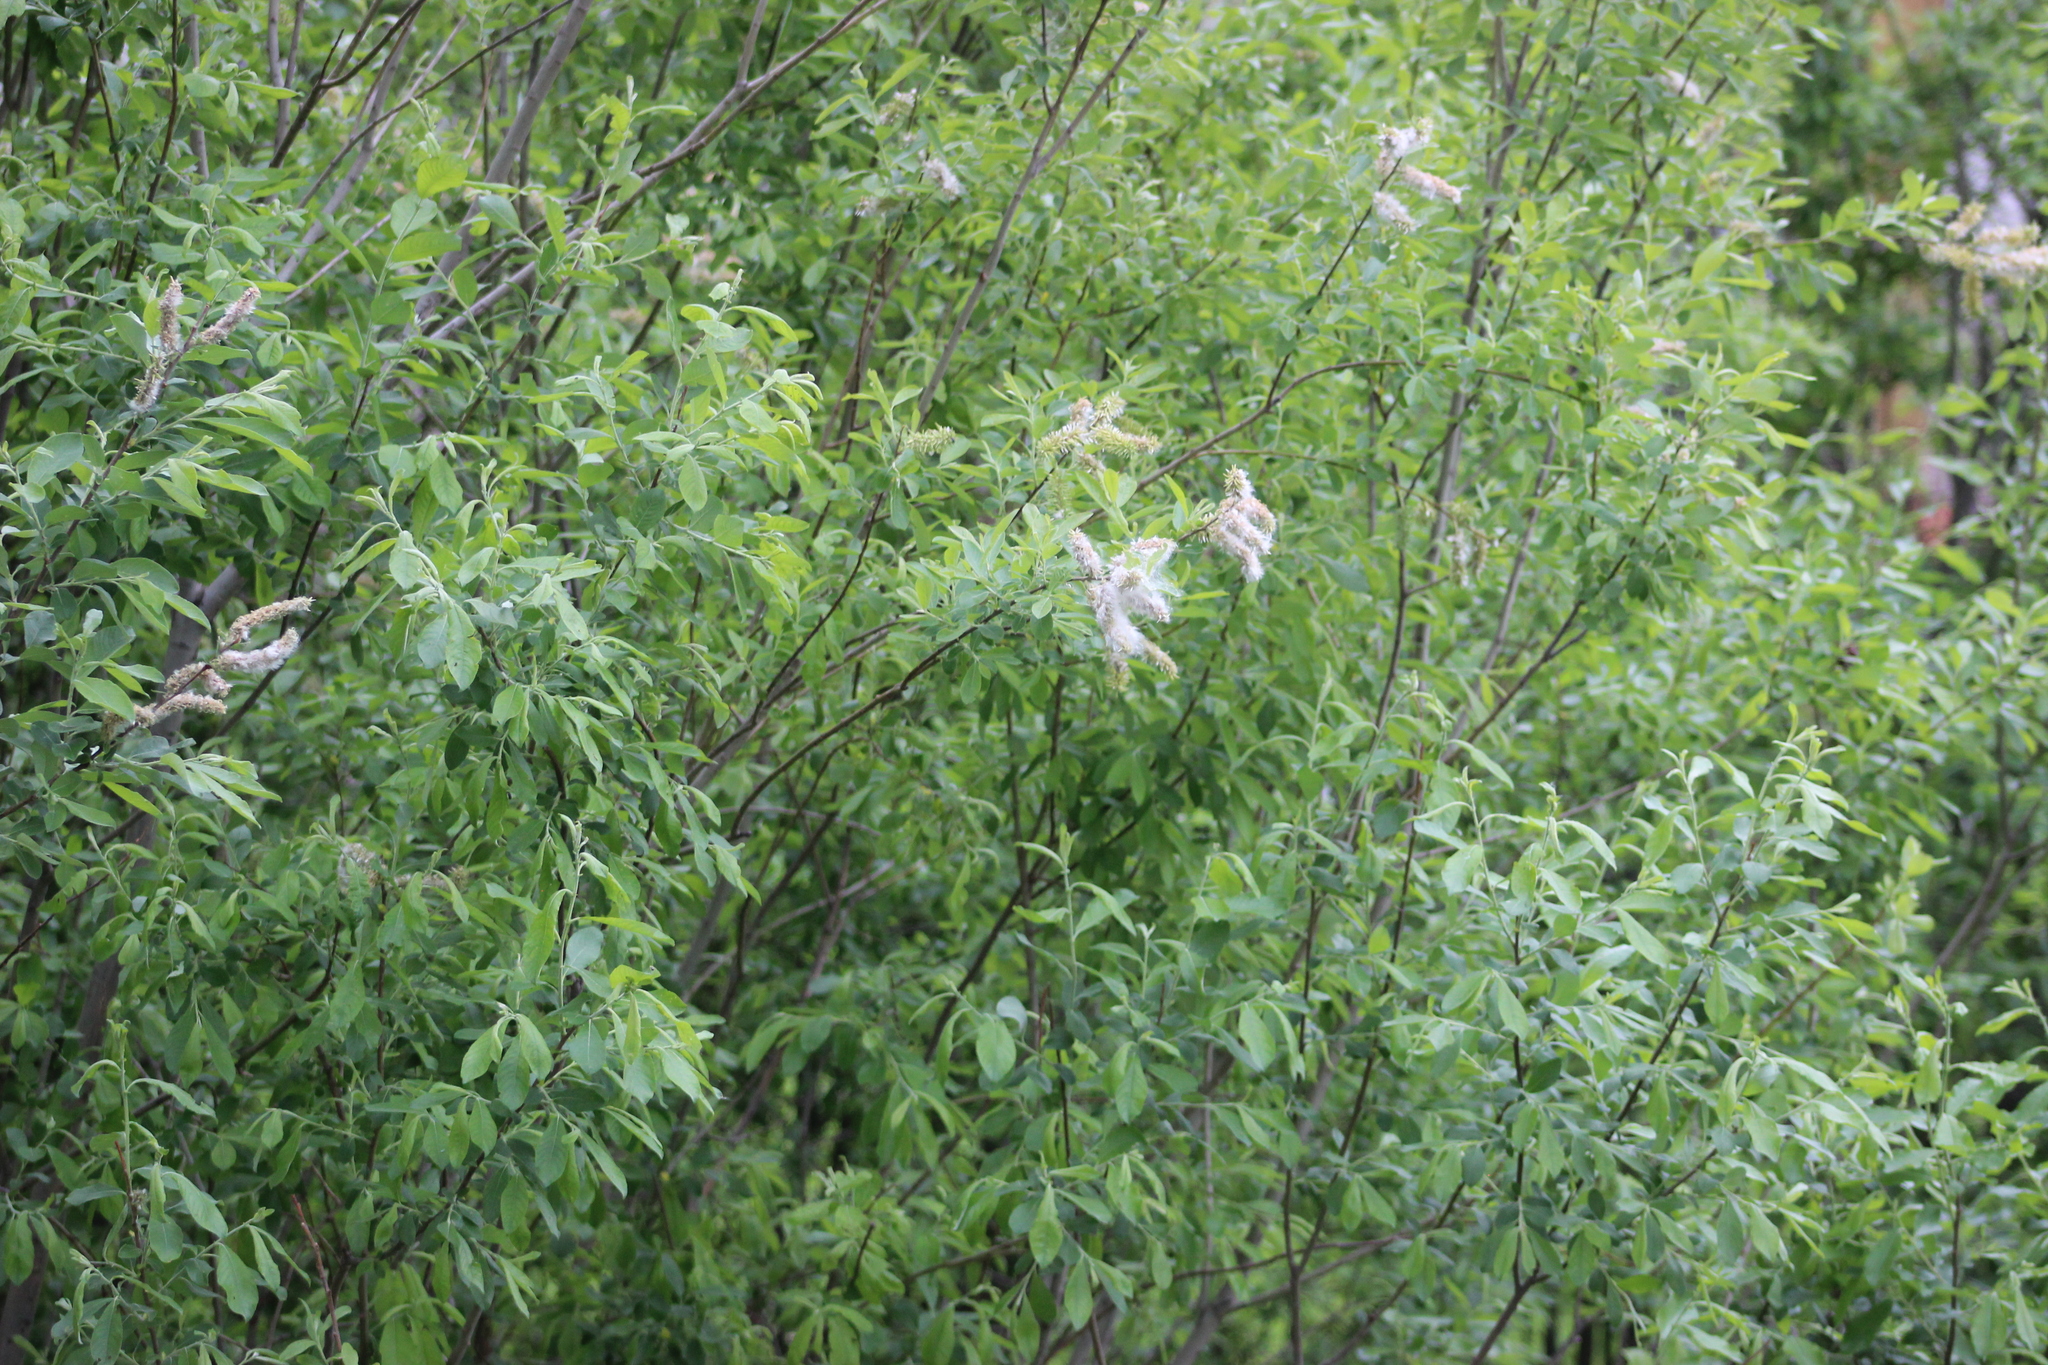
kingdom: Plantae
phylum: Tracheophyta
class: Magnoliopsida
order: Malpighiales
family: Salicaceae
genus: Salix
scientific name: Salix cinerea
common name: Common sallow
